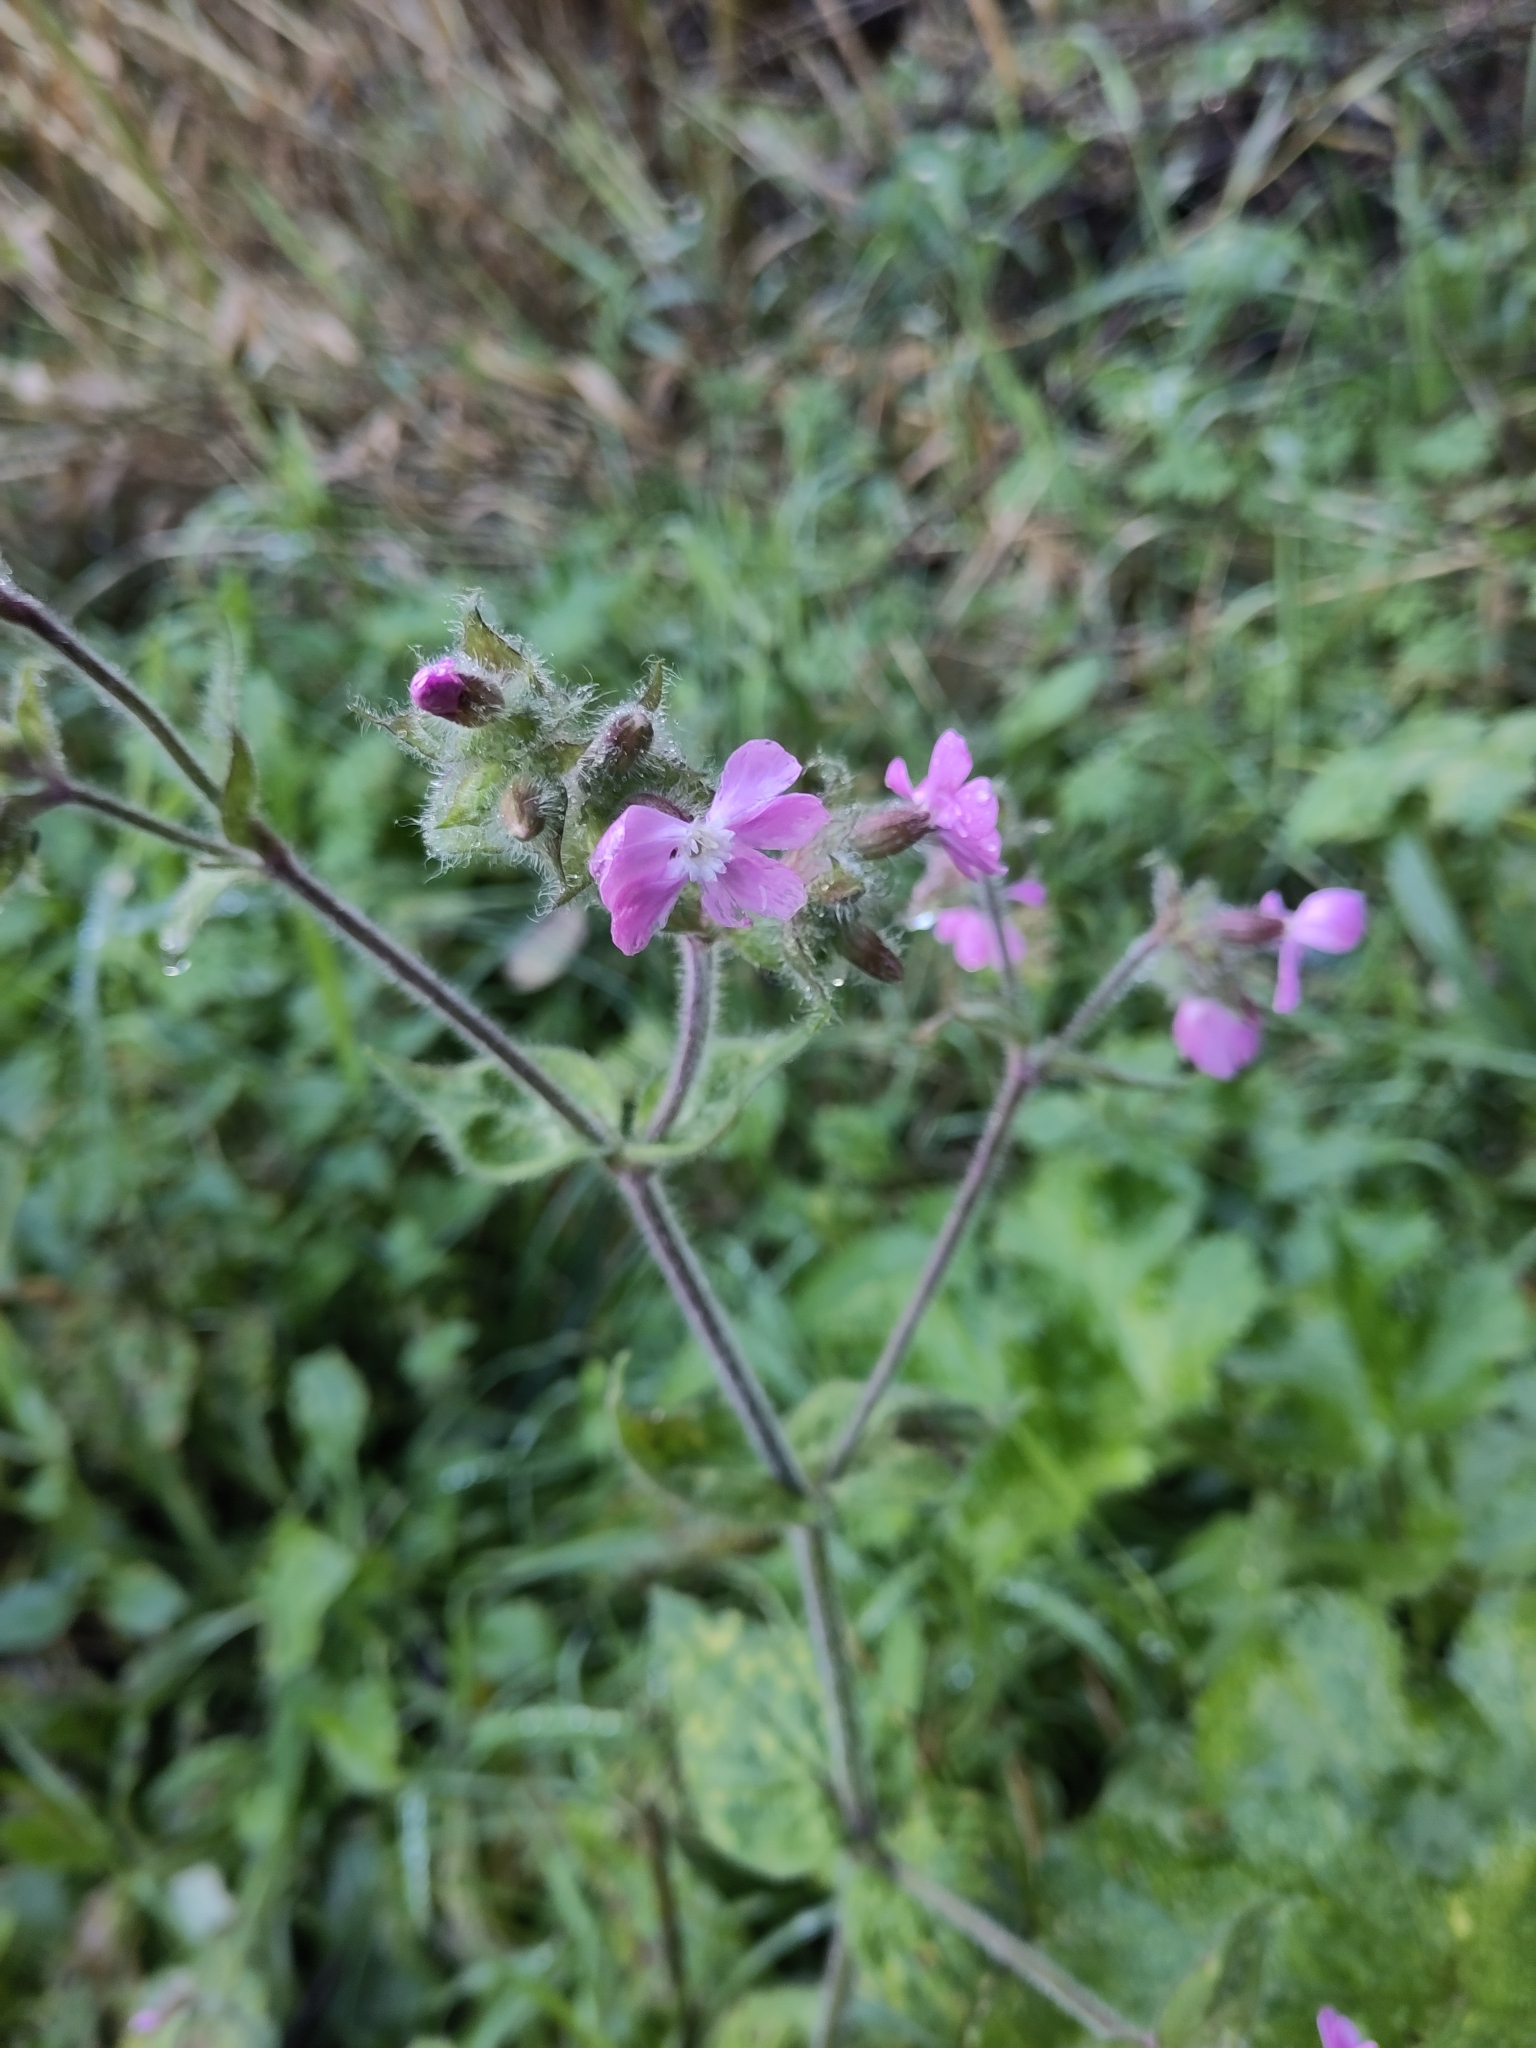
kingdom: Plantae
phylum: Tracheophyta
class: Magnoliopsida
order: Caryophyllales
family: Caryophyllaceae
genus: Silene
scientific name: Silene dioica
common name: Red campion
